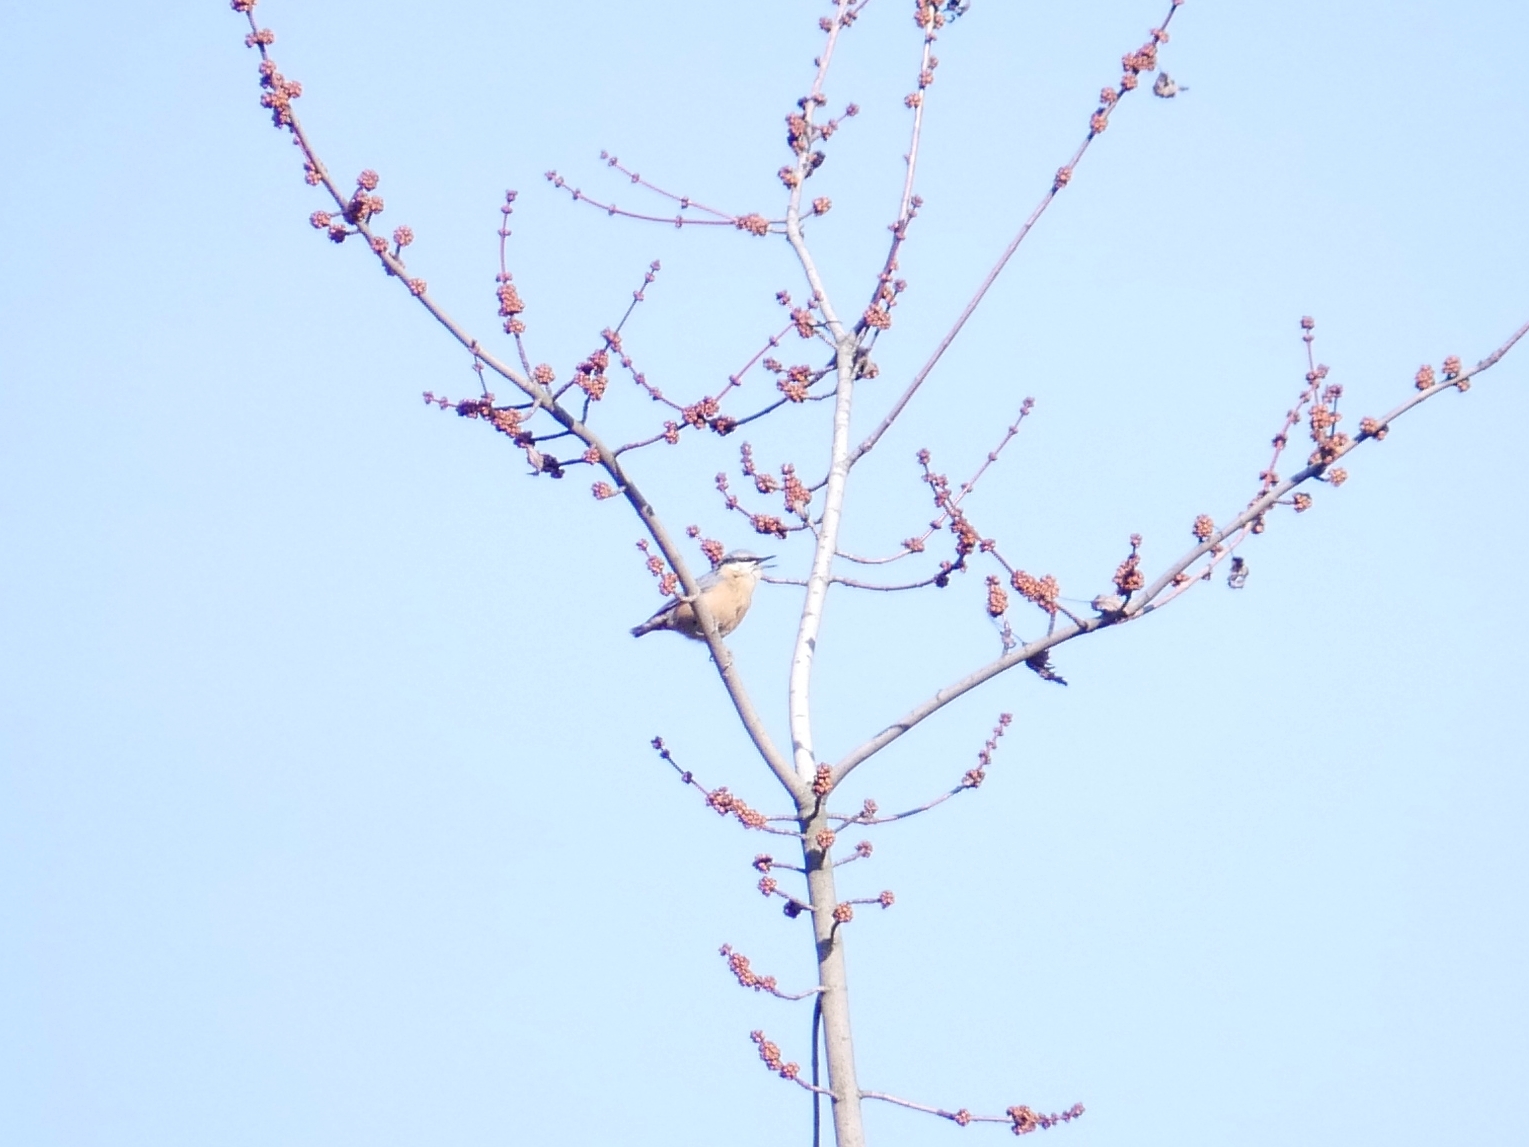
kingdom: Animalia
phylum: Chordata
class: Aves
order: Passeriformes
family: Sittidae
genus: Sitta
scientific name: Sitta europaea
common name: Eurasian nuthatch
